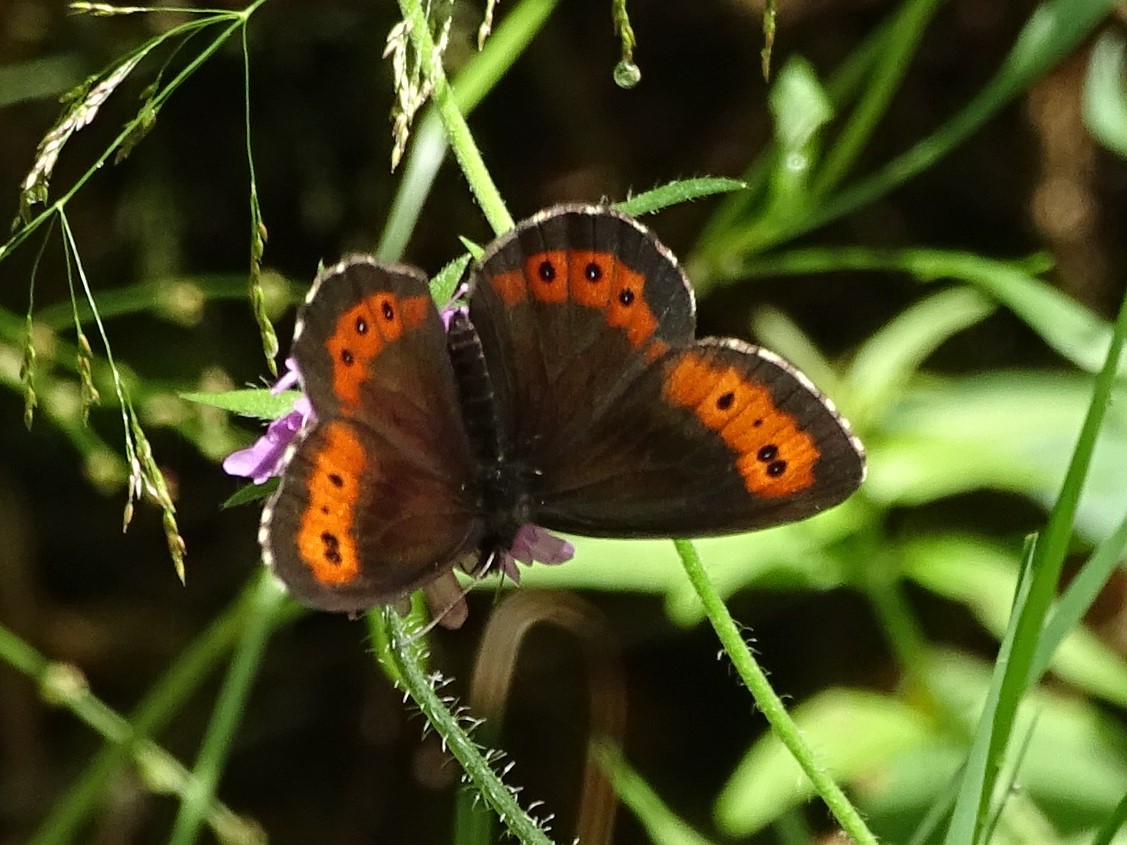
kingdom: Animalia
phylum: Arthropoda
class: Insecta
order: Lepidoptera
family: Nymphalidae
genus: Erebia
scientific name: Erebia ligea
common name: Arran brown
